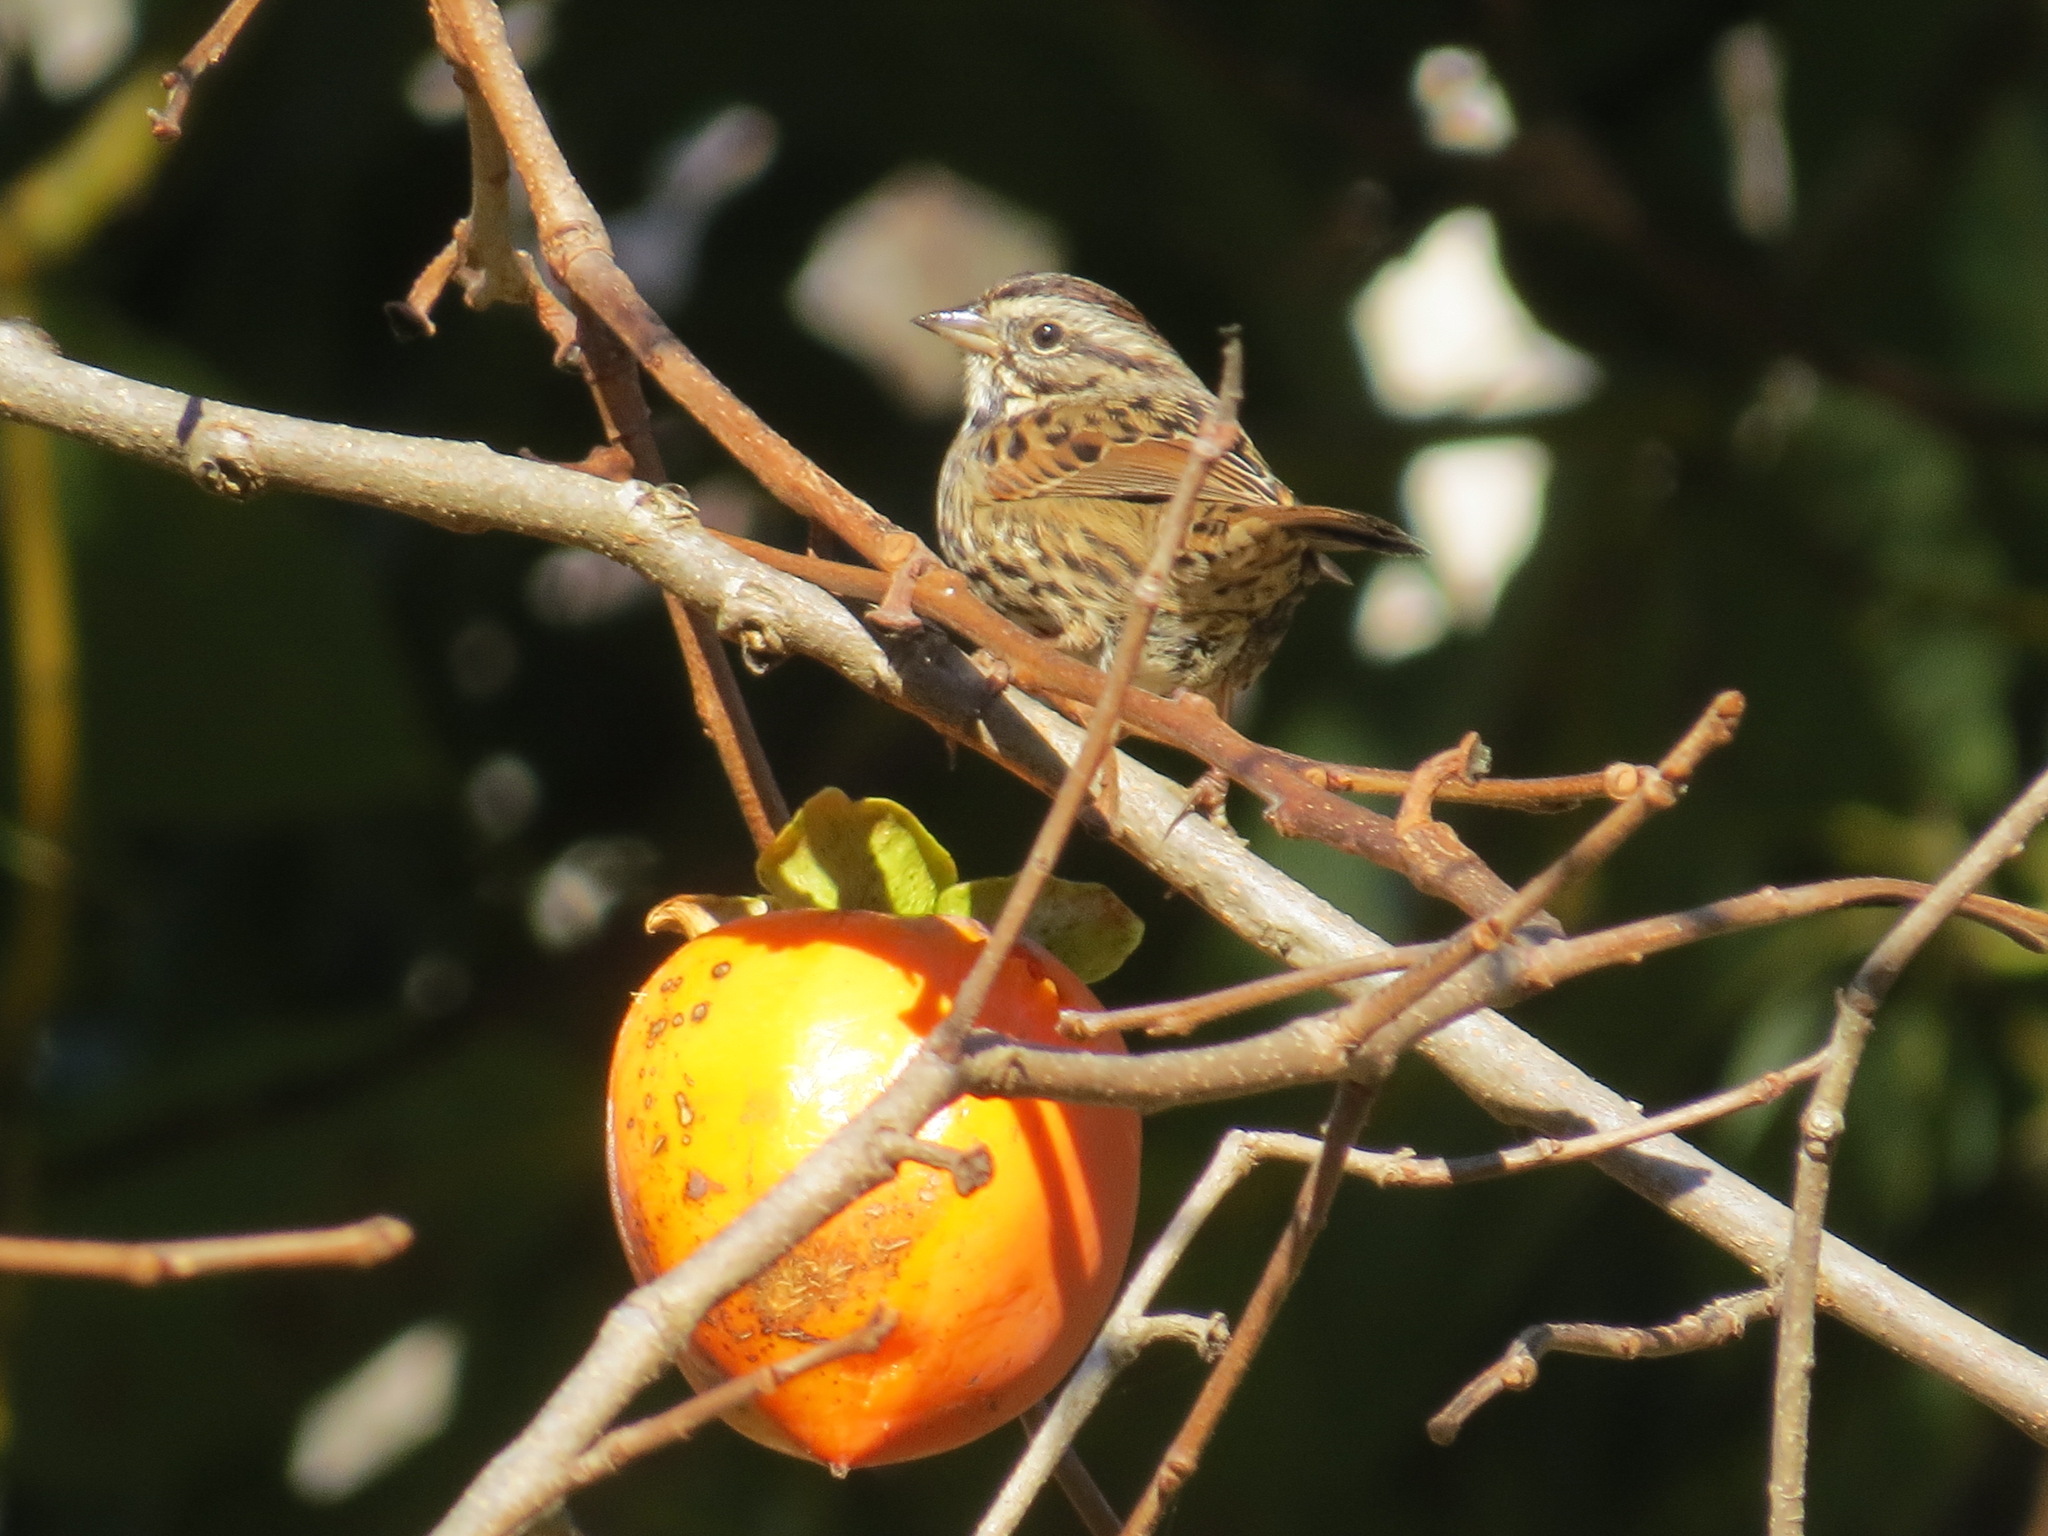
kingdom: Animalia
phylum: Chordata
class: Aves
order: Passeriformes
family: Passerellidae
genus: Melospiza
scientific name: Melospiza melodia
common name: Song sparrow
